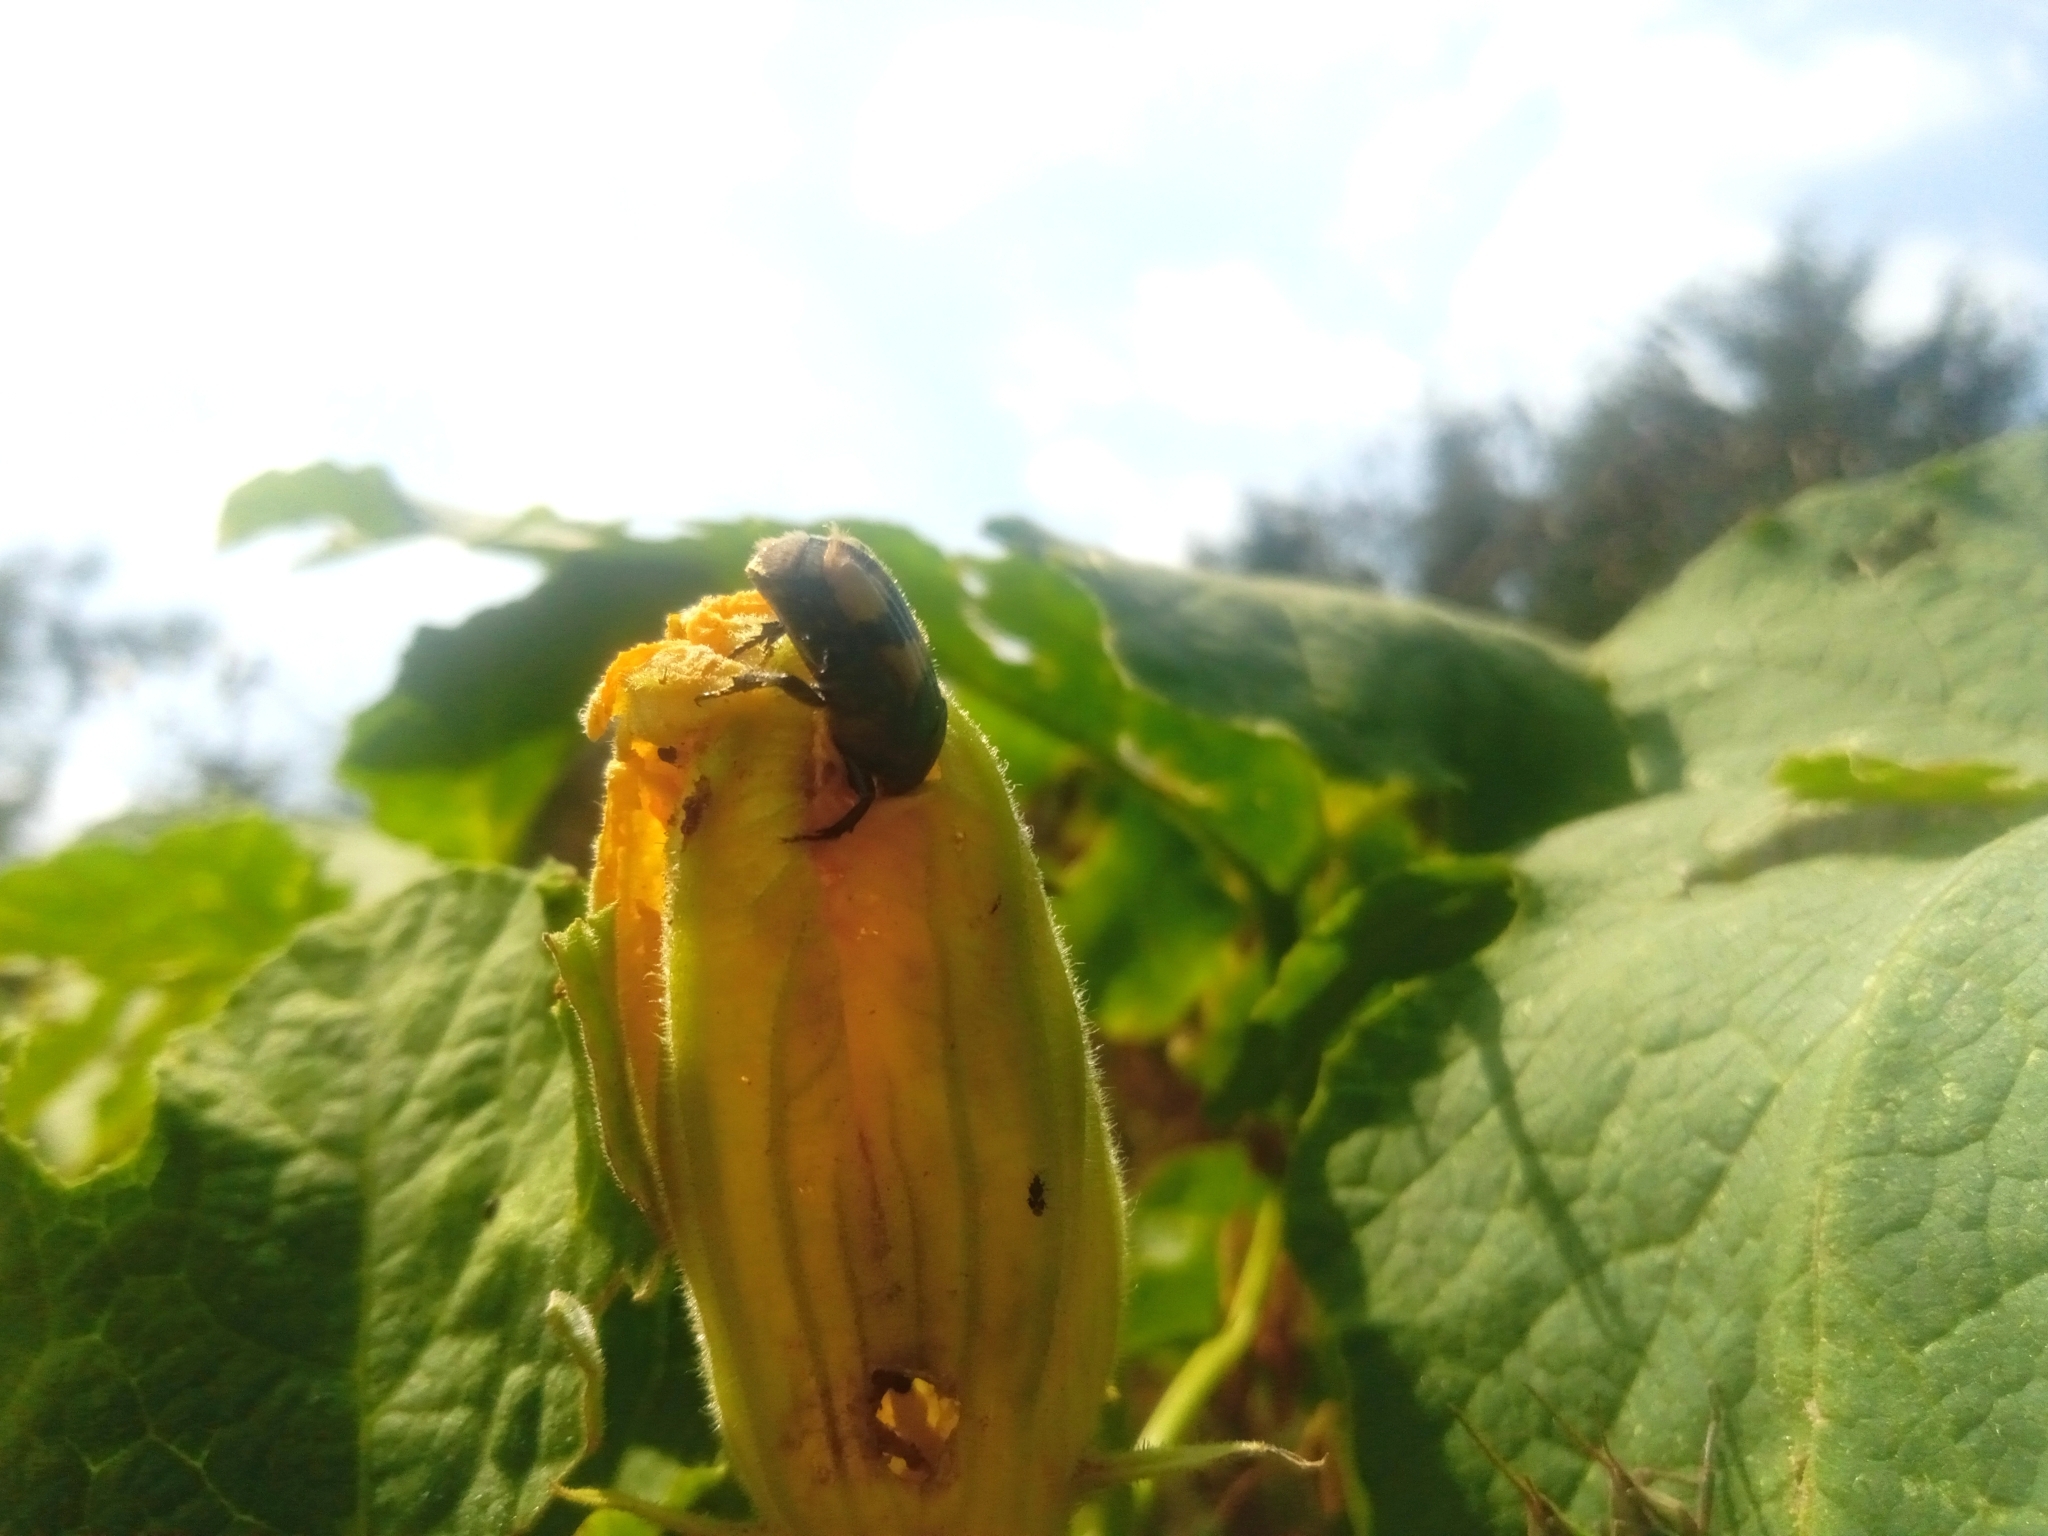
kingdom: Animalia
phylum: Arthropoda
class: Insecta
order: Coleoptera
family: Scarabaeidae
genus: Euphoria
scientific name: Euphoria basalis
